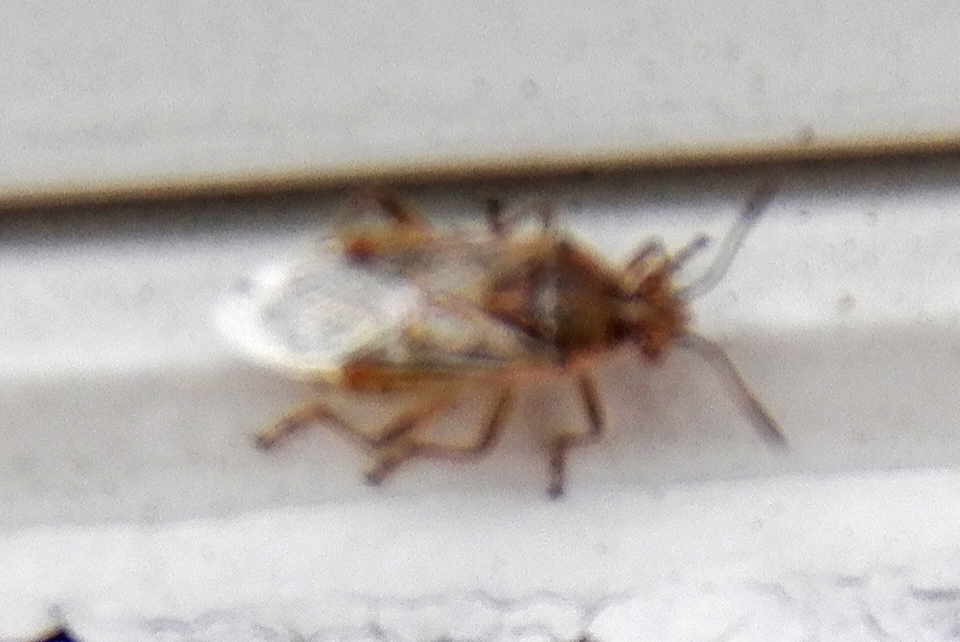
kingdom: Animalia
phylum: Arthropoda
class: Insecta
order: Hemiptera
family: Rhopalidae
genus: Liorhyssus
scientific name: Liorhyssus hyalinus
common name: Scentless plant bug
